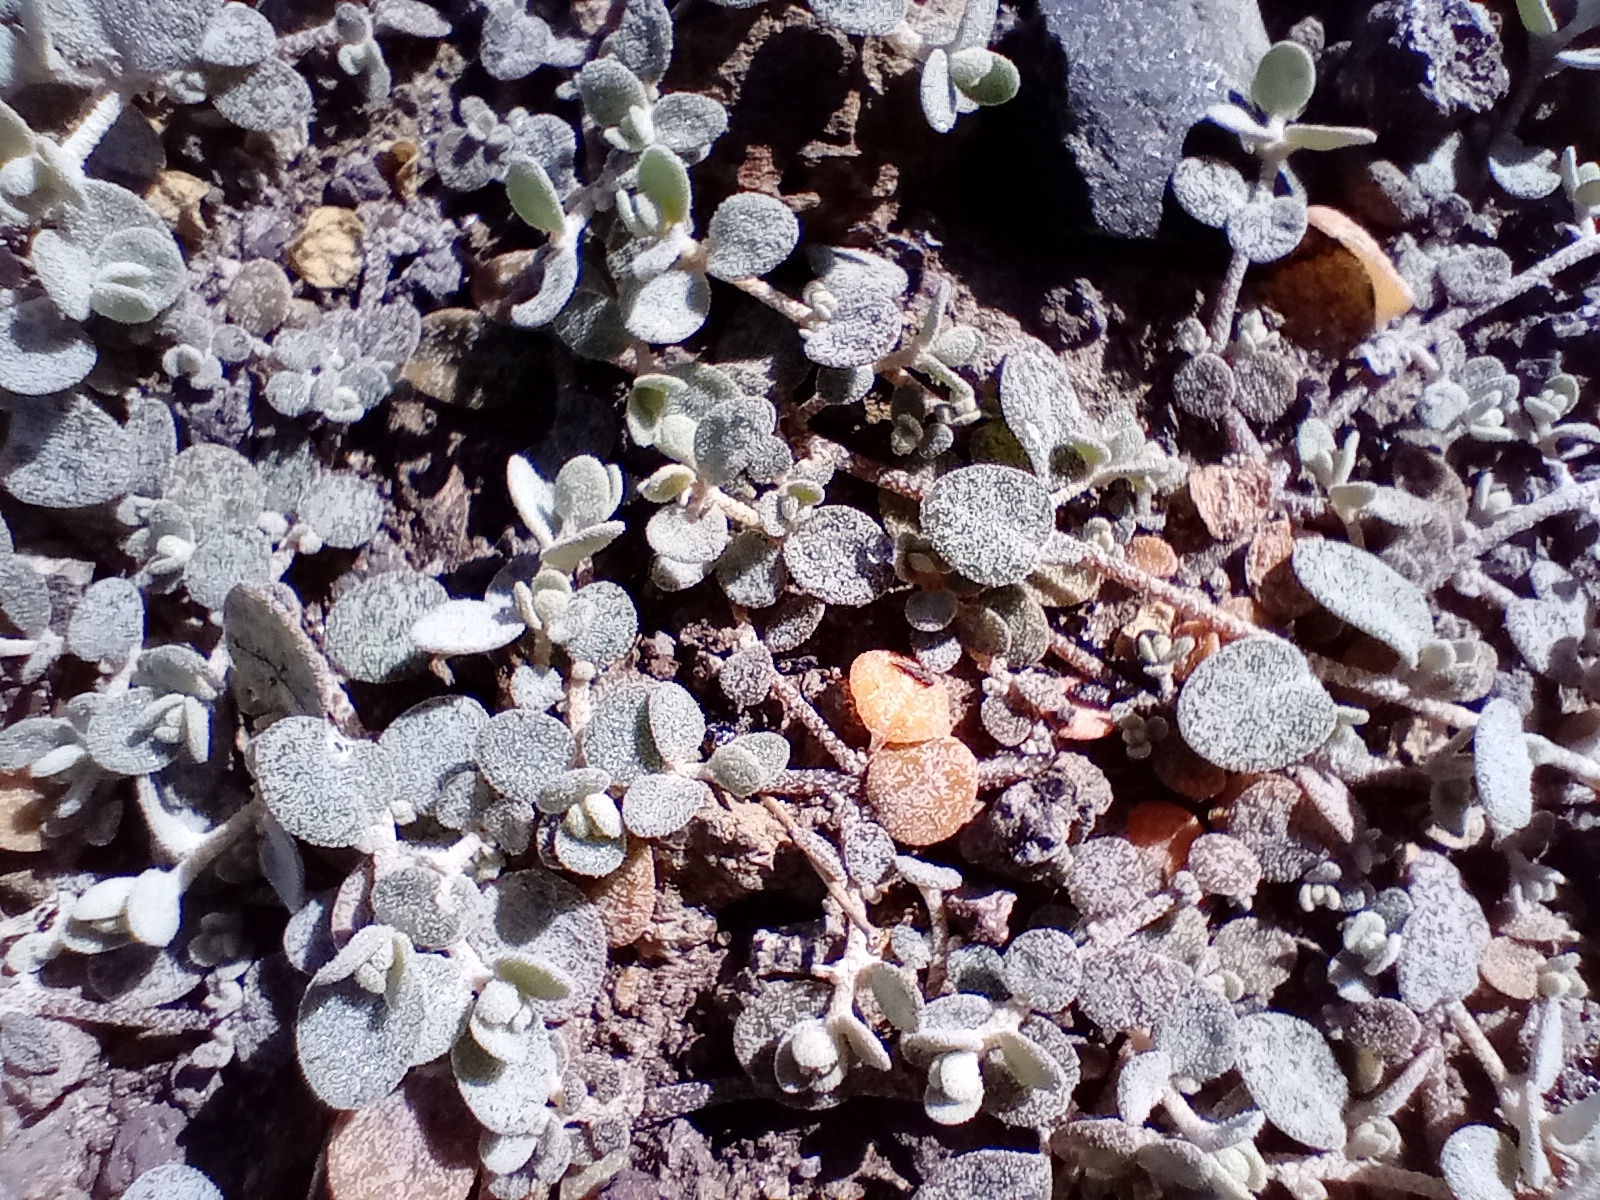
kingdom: Plantae
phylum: Tracheophyta
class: Magnoliopsida
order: Caryophyllales
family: Amaranthaceae
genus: Atriplex
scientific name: Atriplex buchananii
